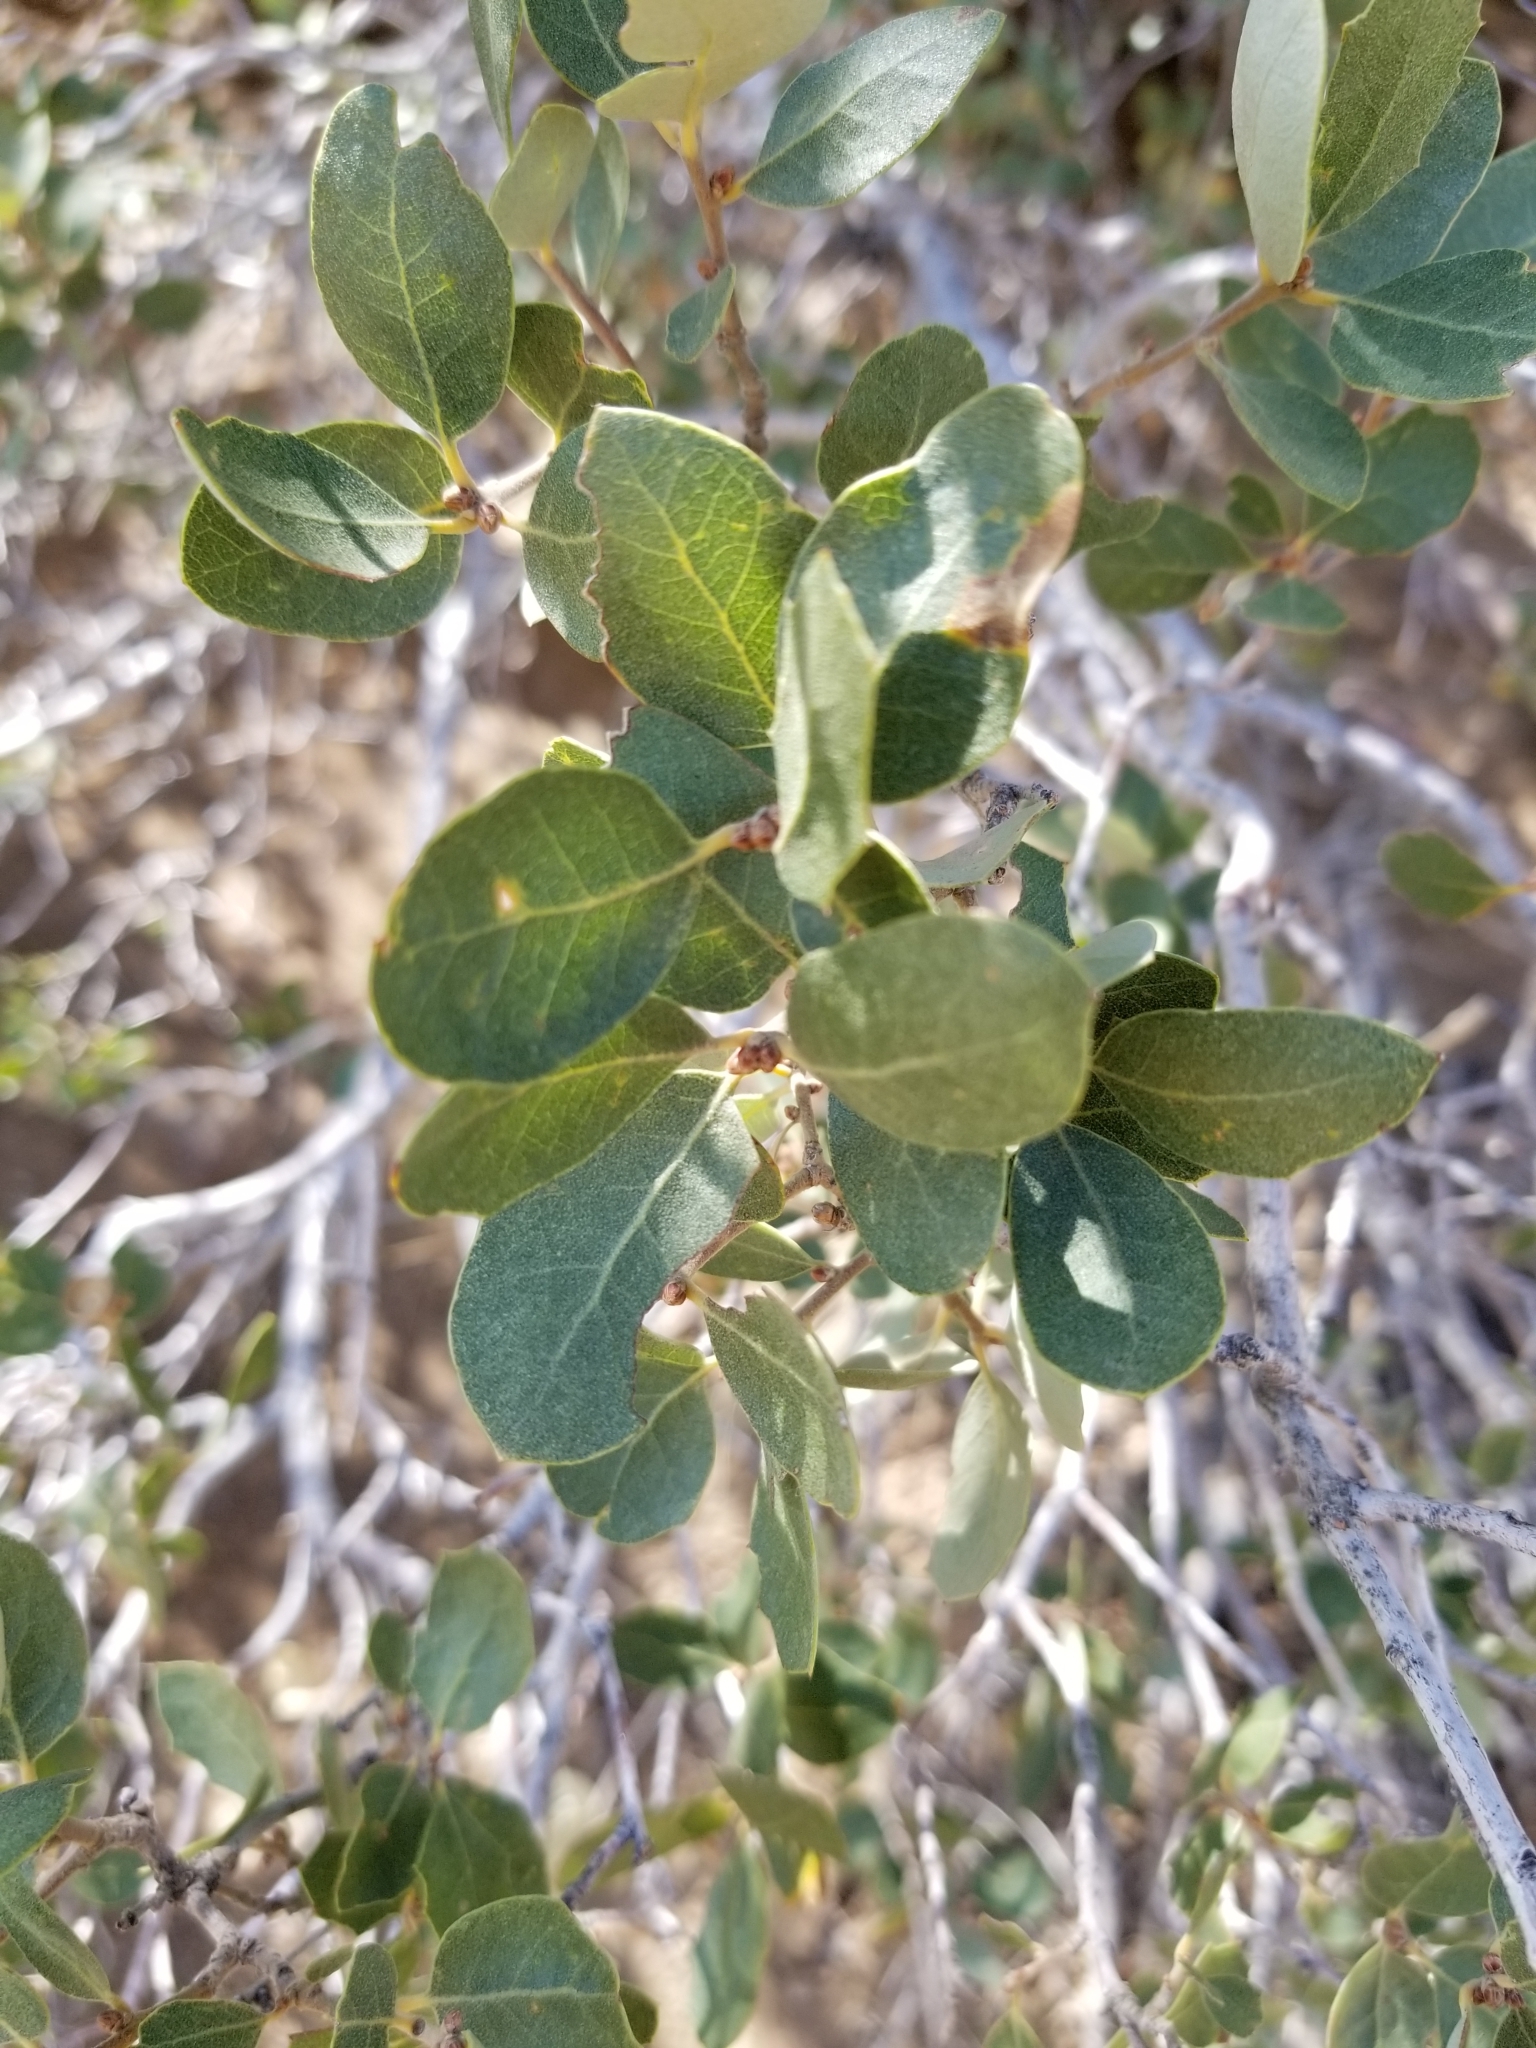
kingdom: Plantae
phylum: Tracheophyta
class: Magnoliopsida
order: Fagales
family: Fagaceae
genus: Quercus
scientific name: Quercus cornelius-mulleri
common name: Muller oak
